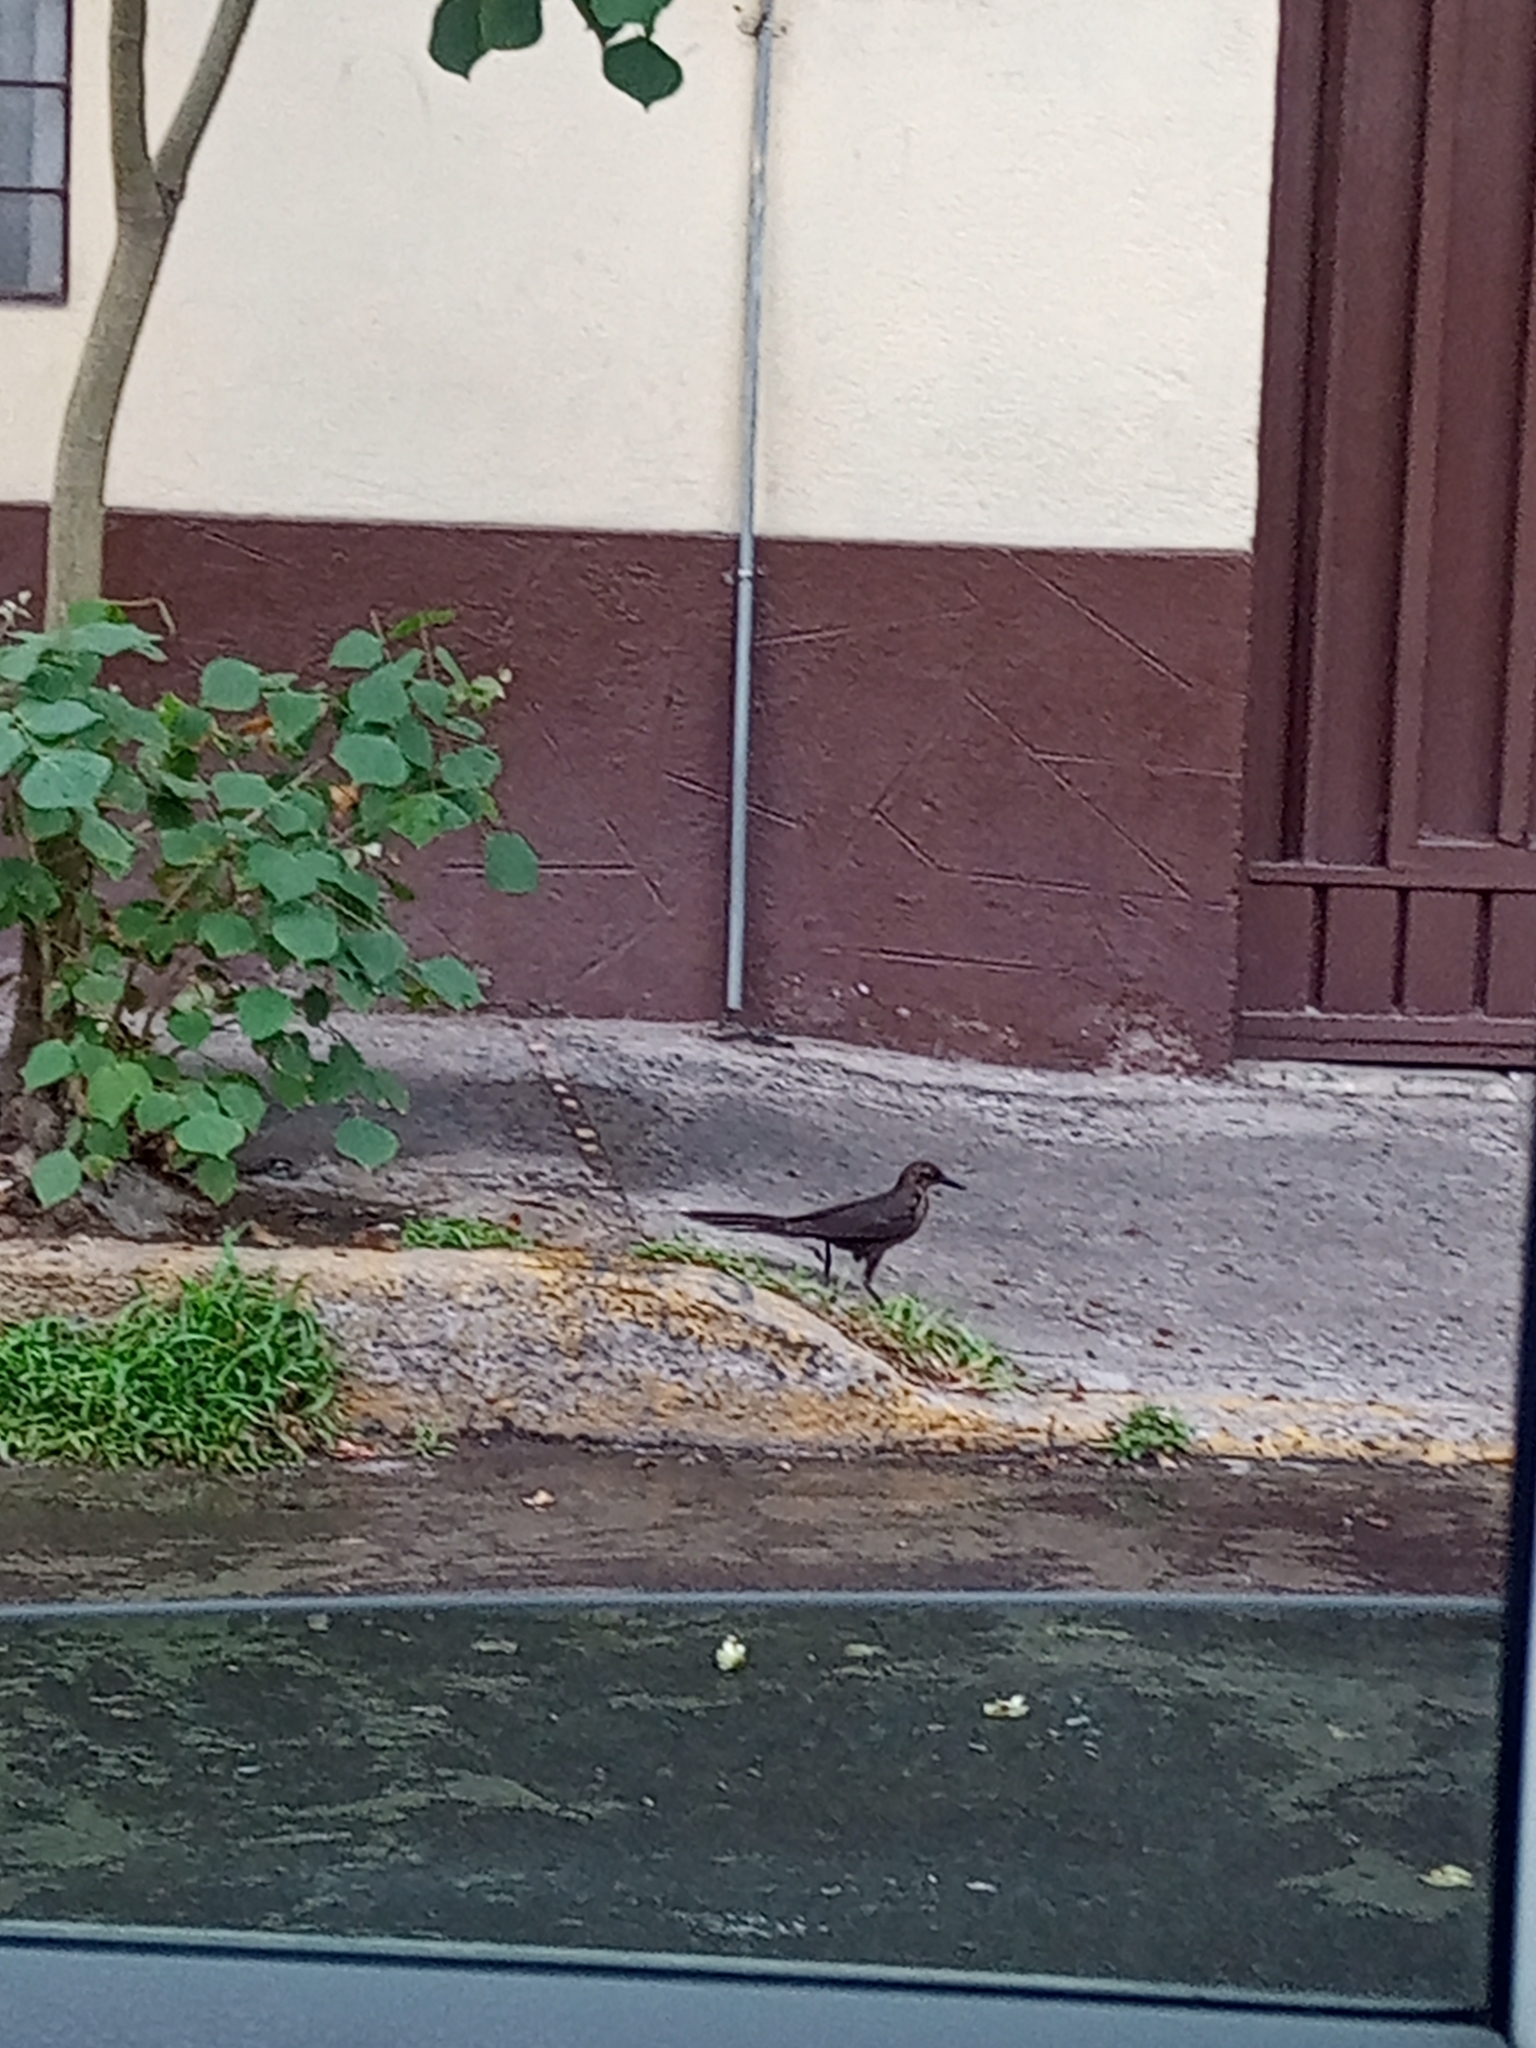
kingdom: Animalia
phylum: Chordata
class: Aves
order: Passeriformes
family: Icteridae
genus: Quiscalus
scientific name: Quiscalus mexicanus
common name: Great-tailed grackle
